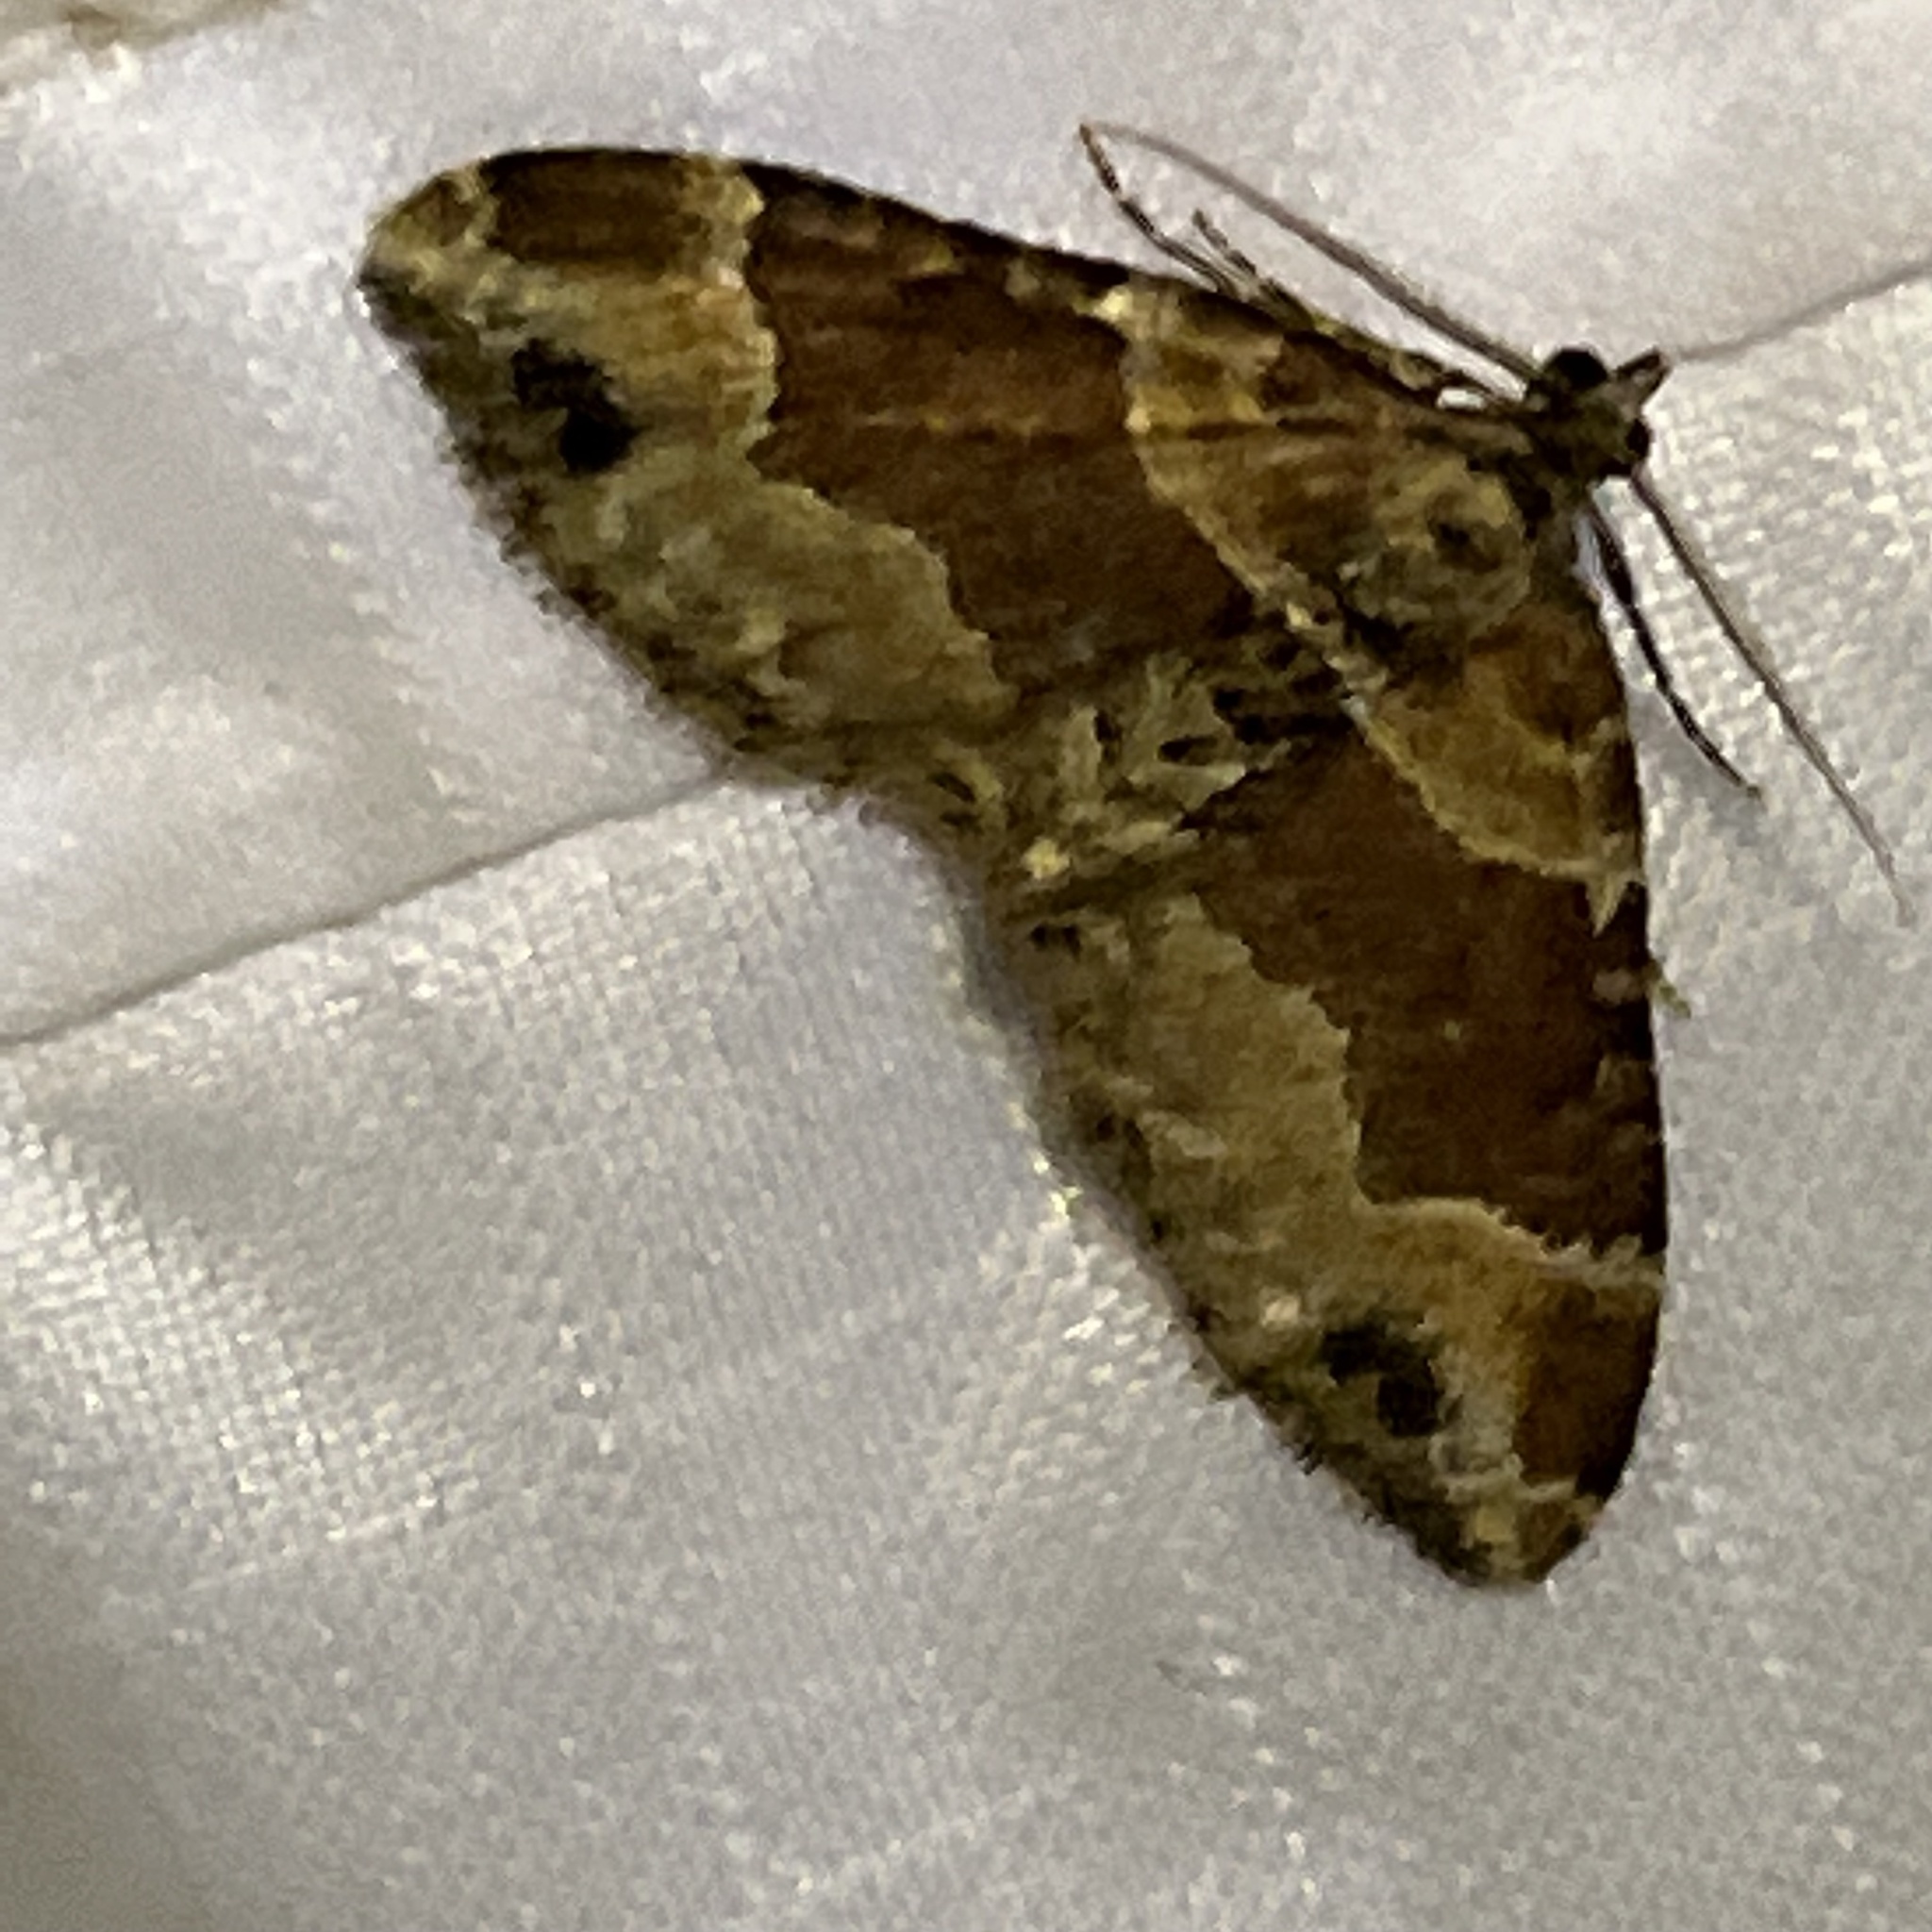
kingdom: Animalia
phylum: Arthropoda
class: Insecta
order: Lepidoptera
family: Geometridae
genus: Xanthorhoe
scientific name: Xanthorhoe ferrugata
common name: Dark-barred twin-spot carpet
